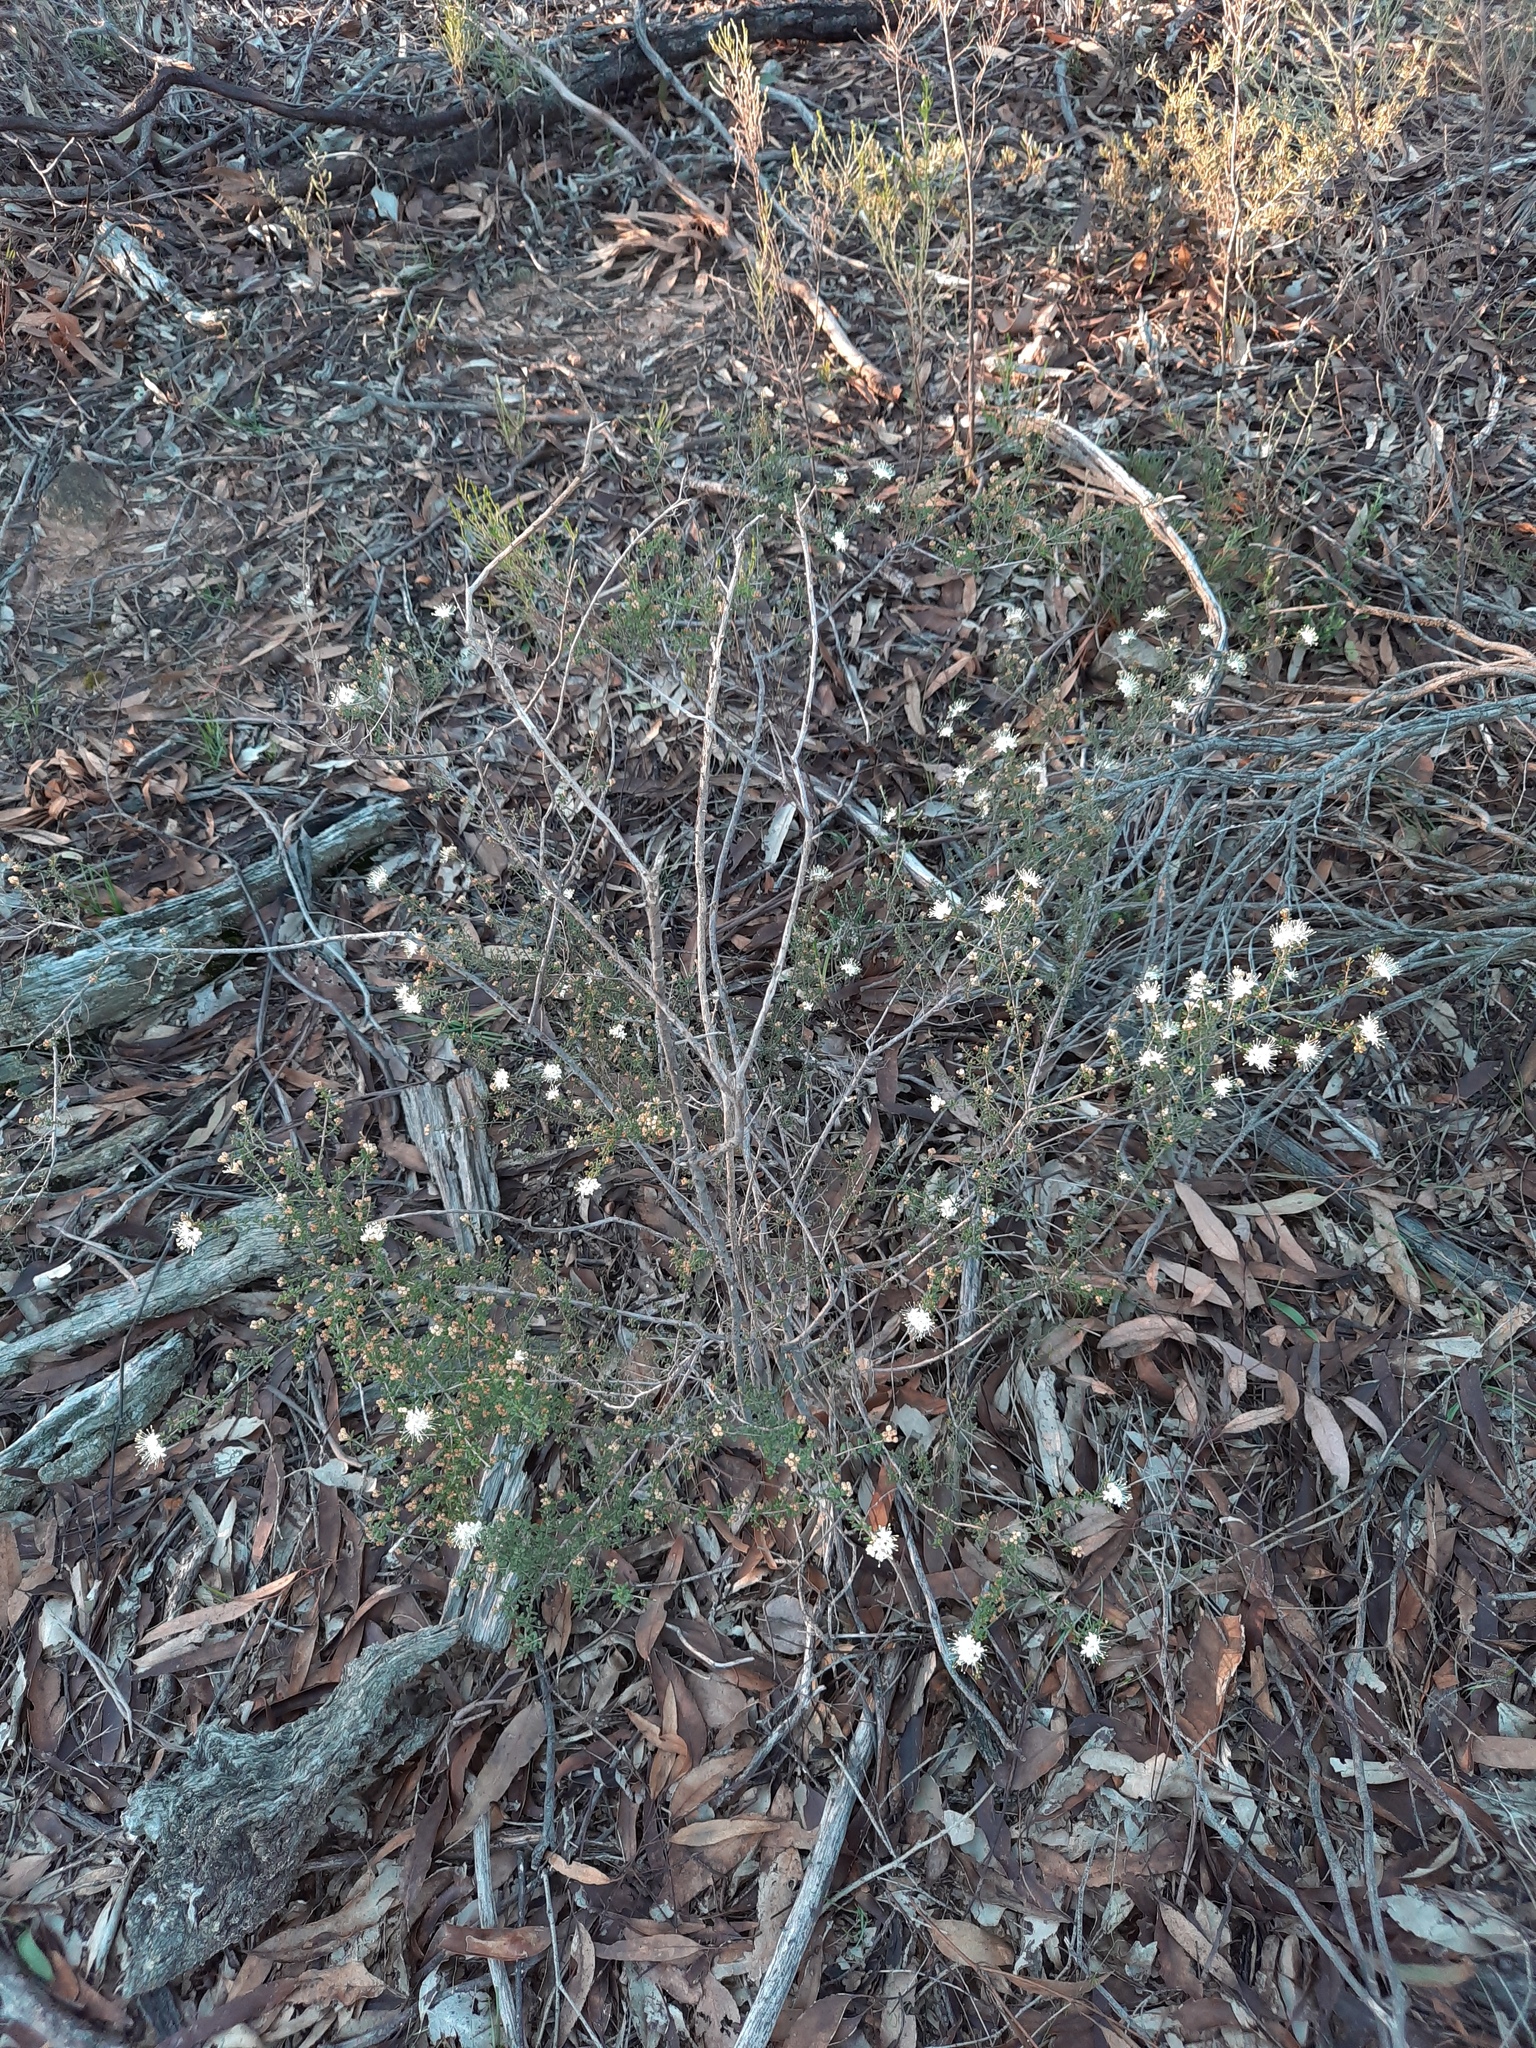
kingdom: Plantae
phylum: Tracheophyta
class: Magnoliopsida
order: Sapindales
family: Rutaceae
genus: Phebalium
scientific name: Phebalium festivum
